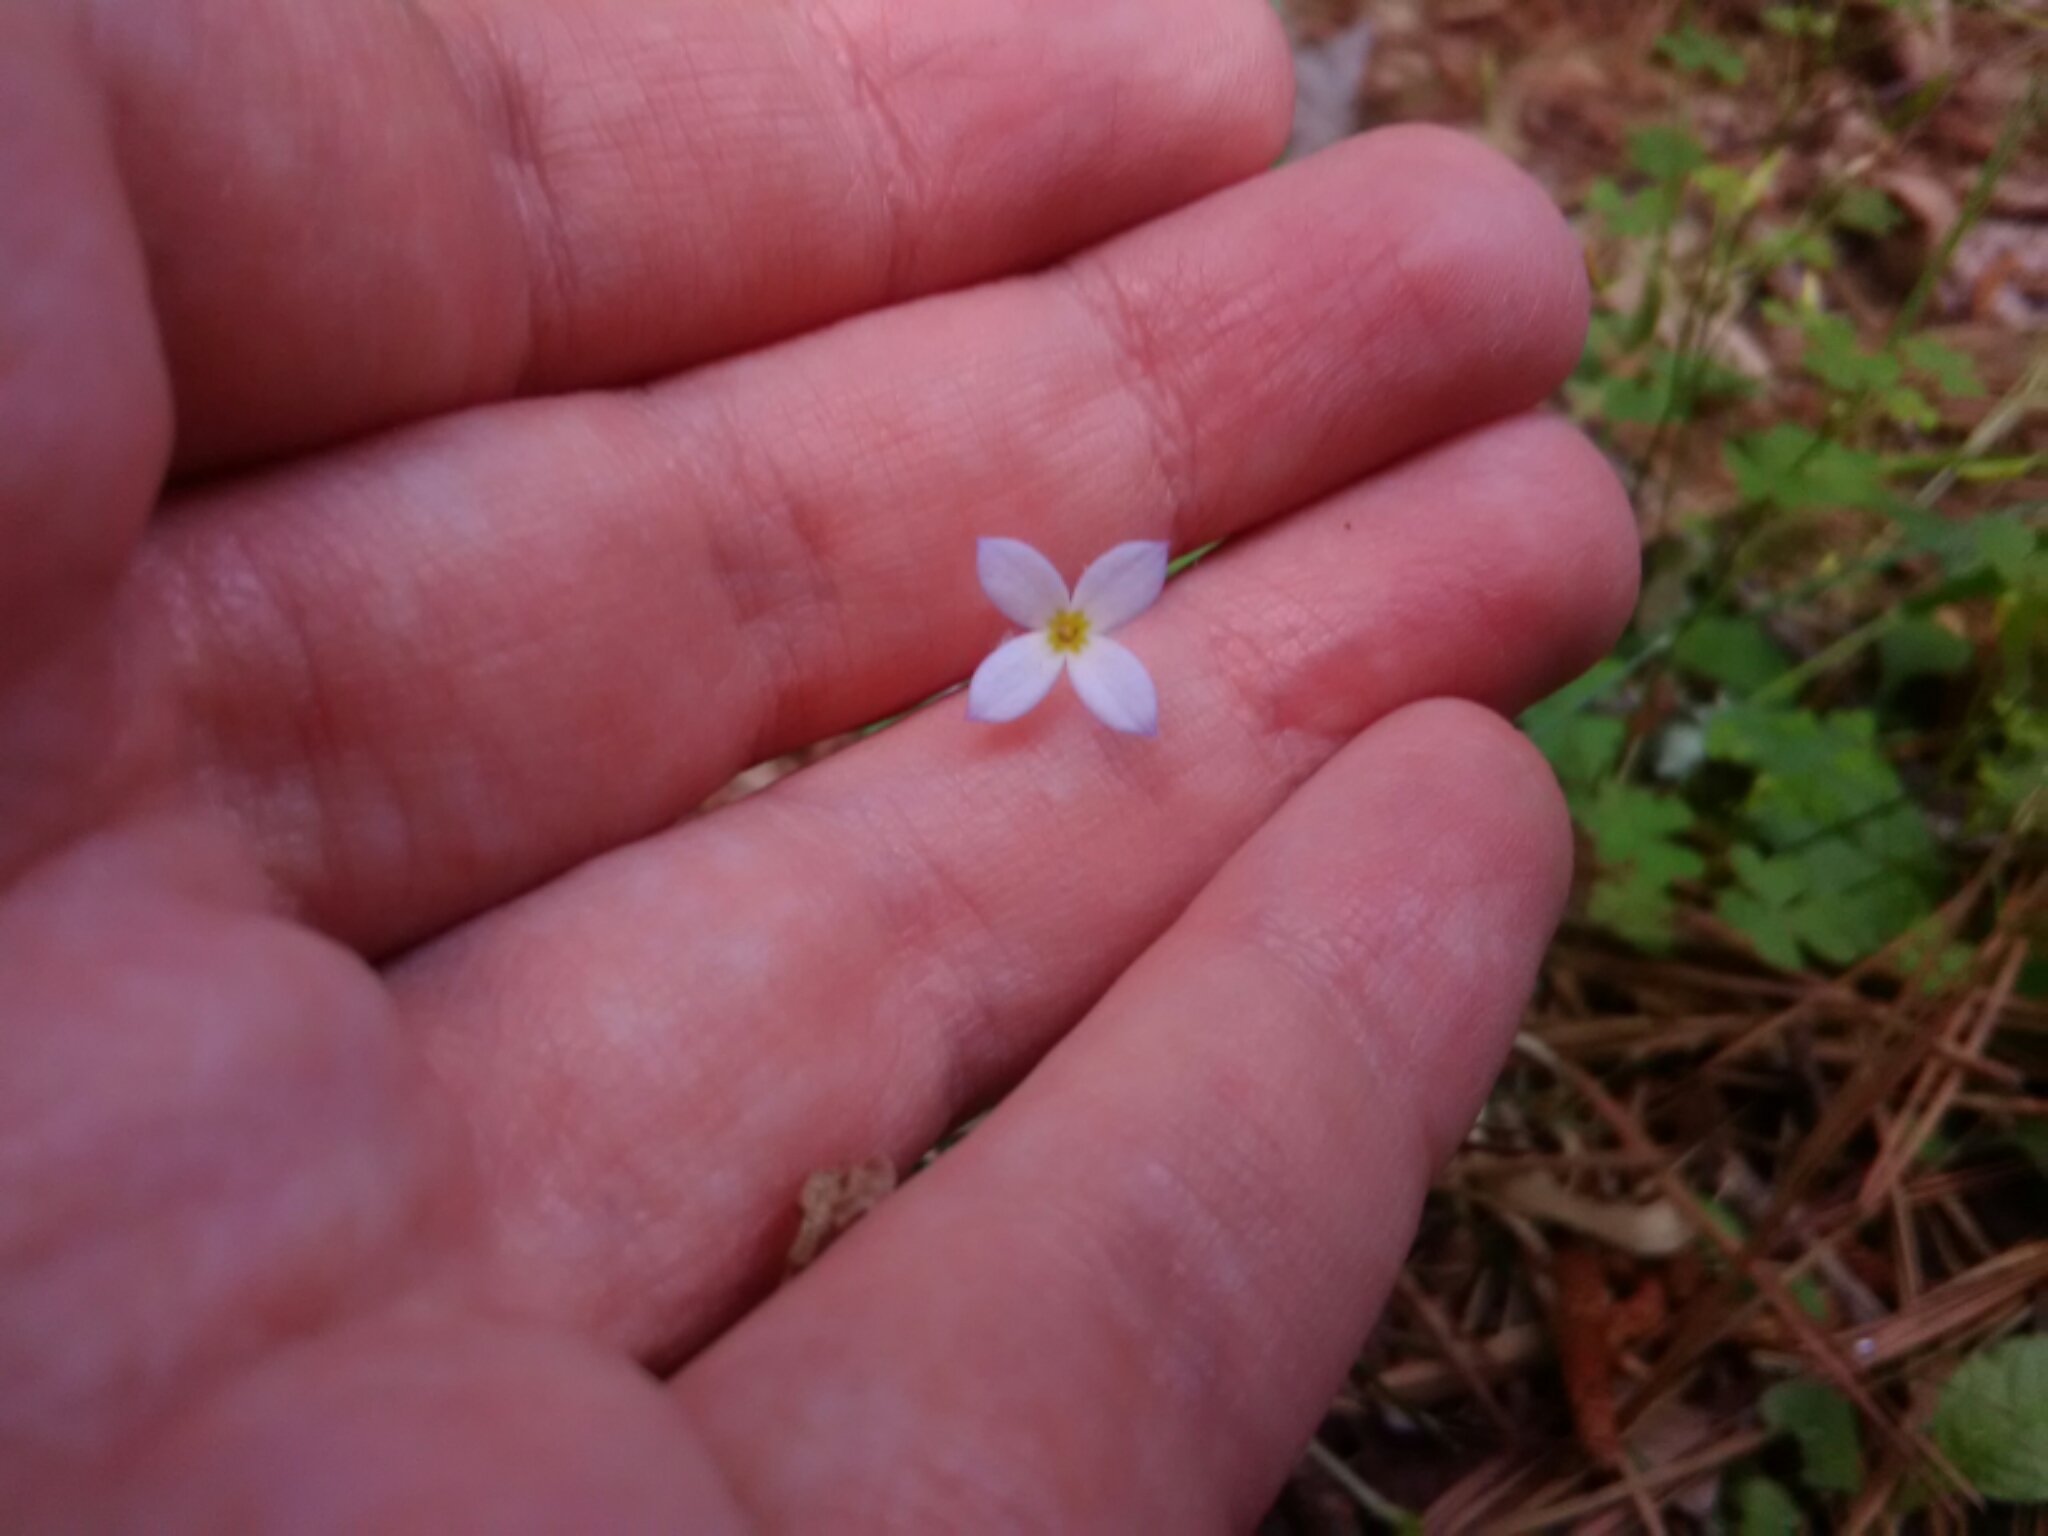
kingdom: Plantae
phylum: Tracheophyta
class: Magnoliopsida
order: Gentianales
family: Rubiaceae
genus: Houstonia
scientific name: Houstonia caerulea
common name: Bluets
